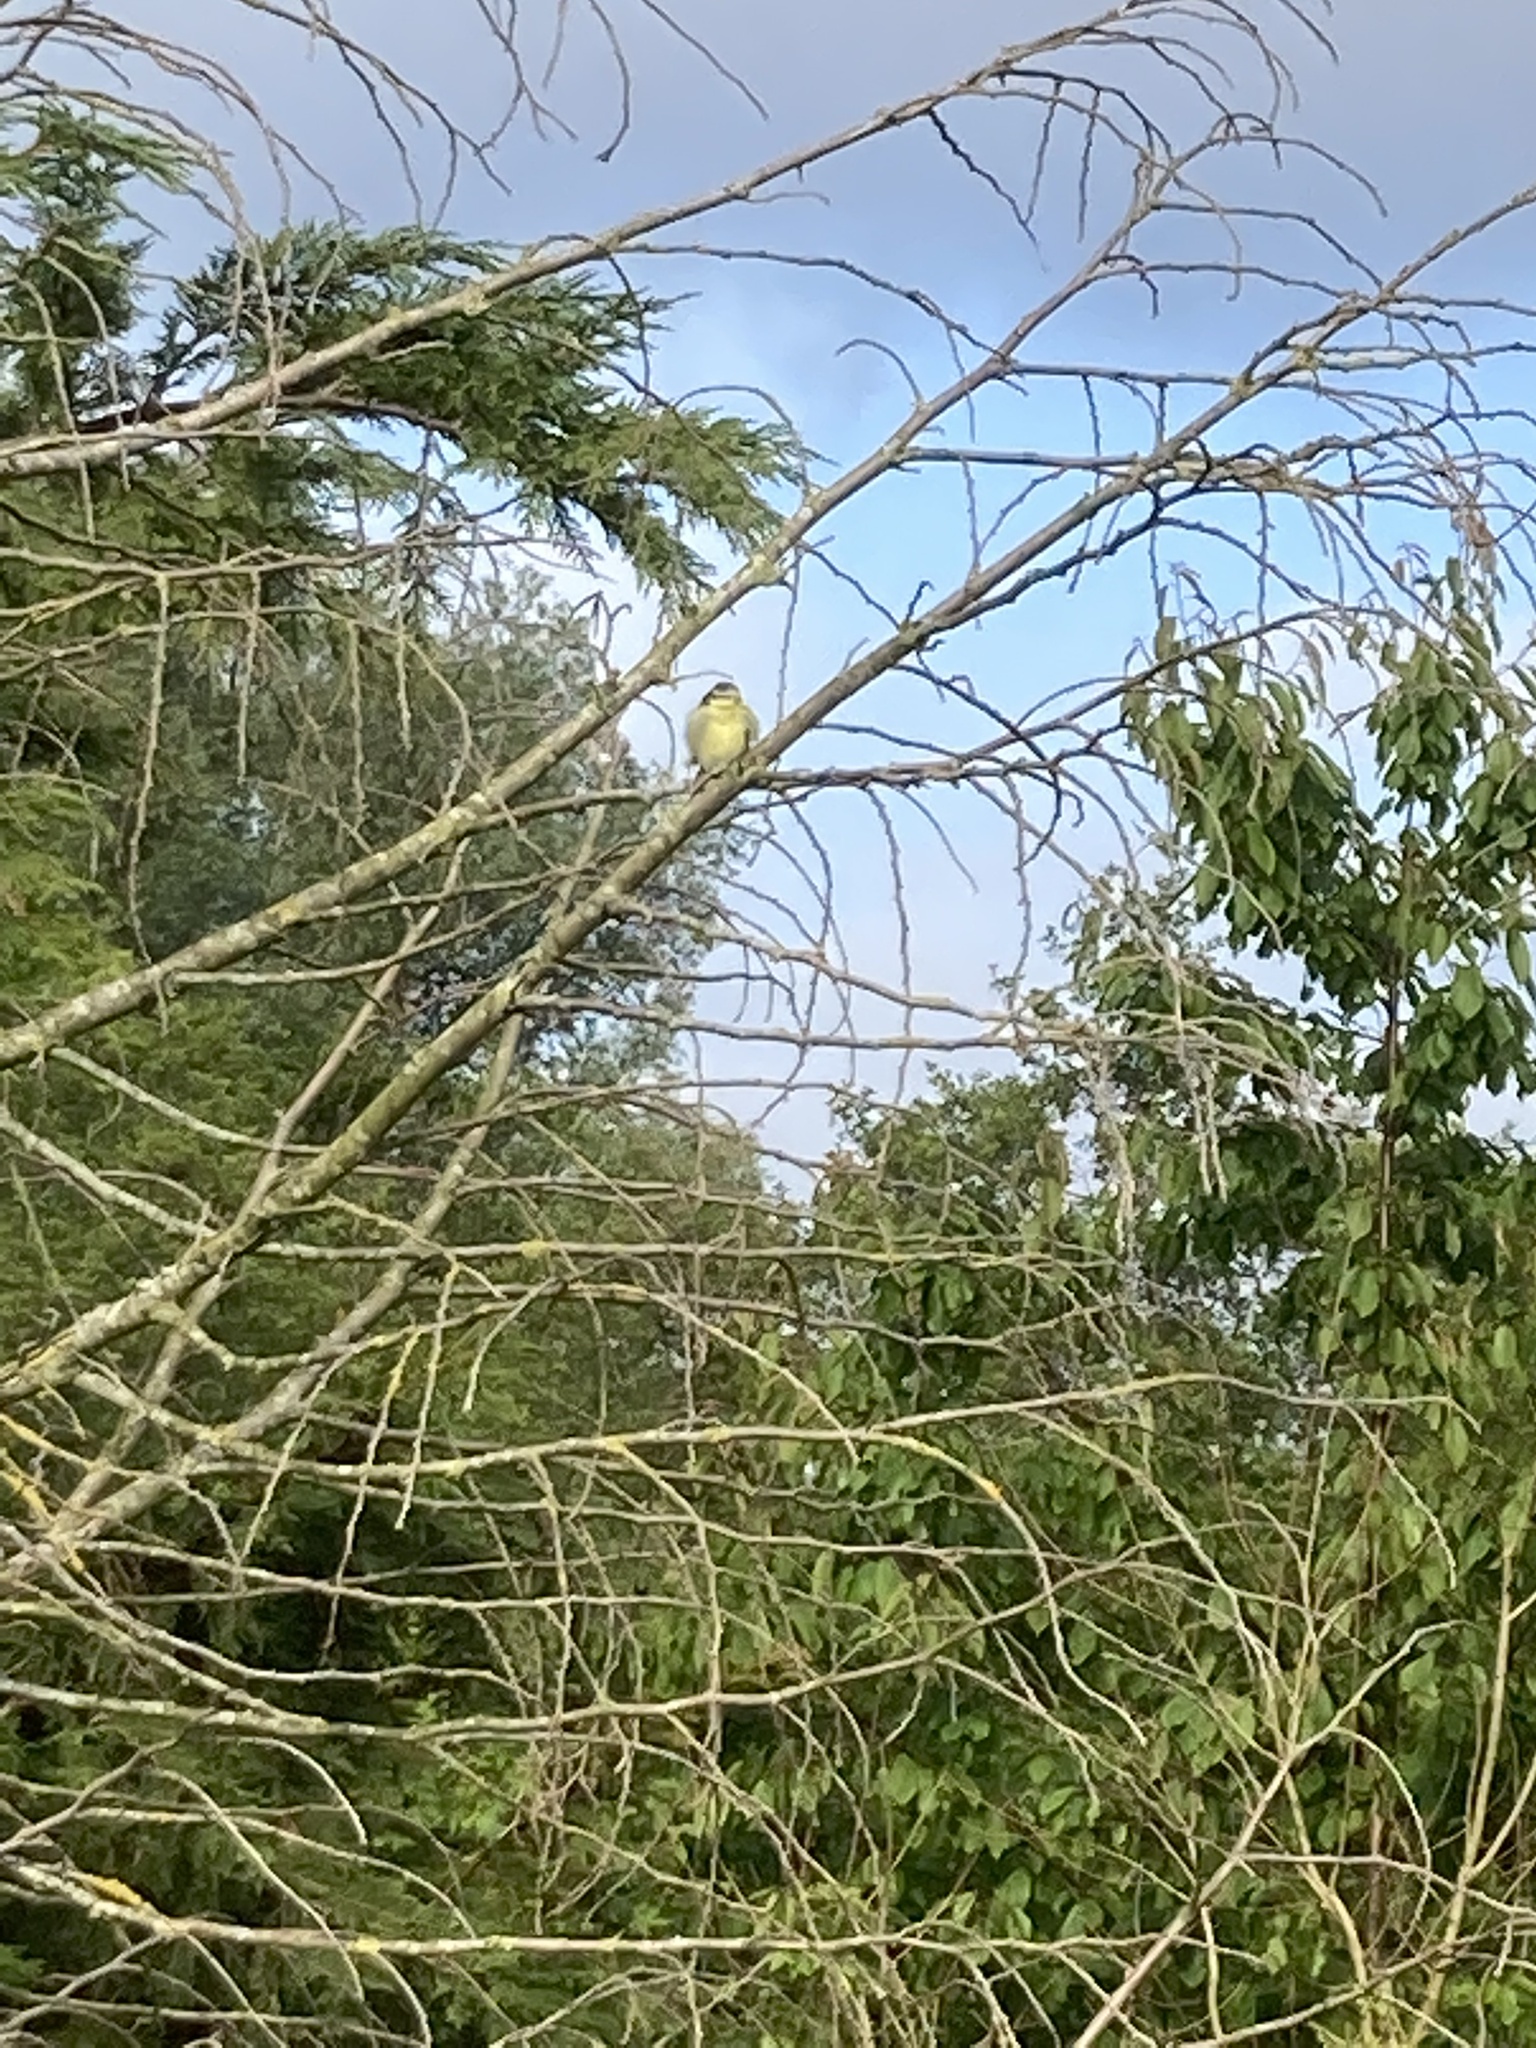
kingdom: Animalia
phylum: Chordata
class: Aves
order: Passeriformes
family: Paridae
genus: Cyanistes
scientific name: Cyanistes caeruleus
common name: Eurasian blue tit
